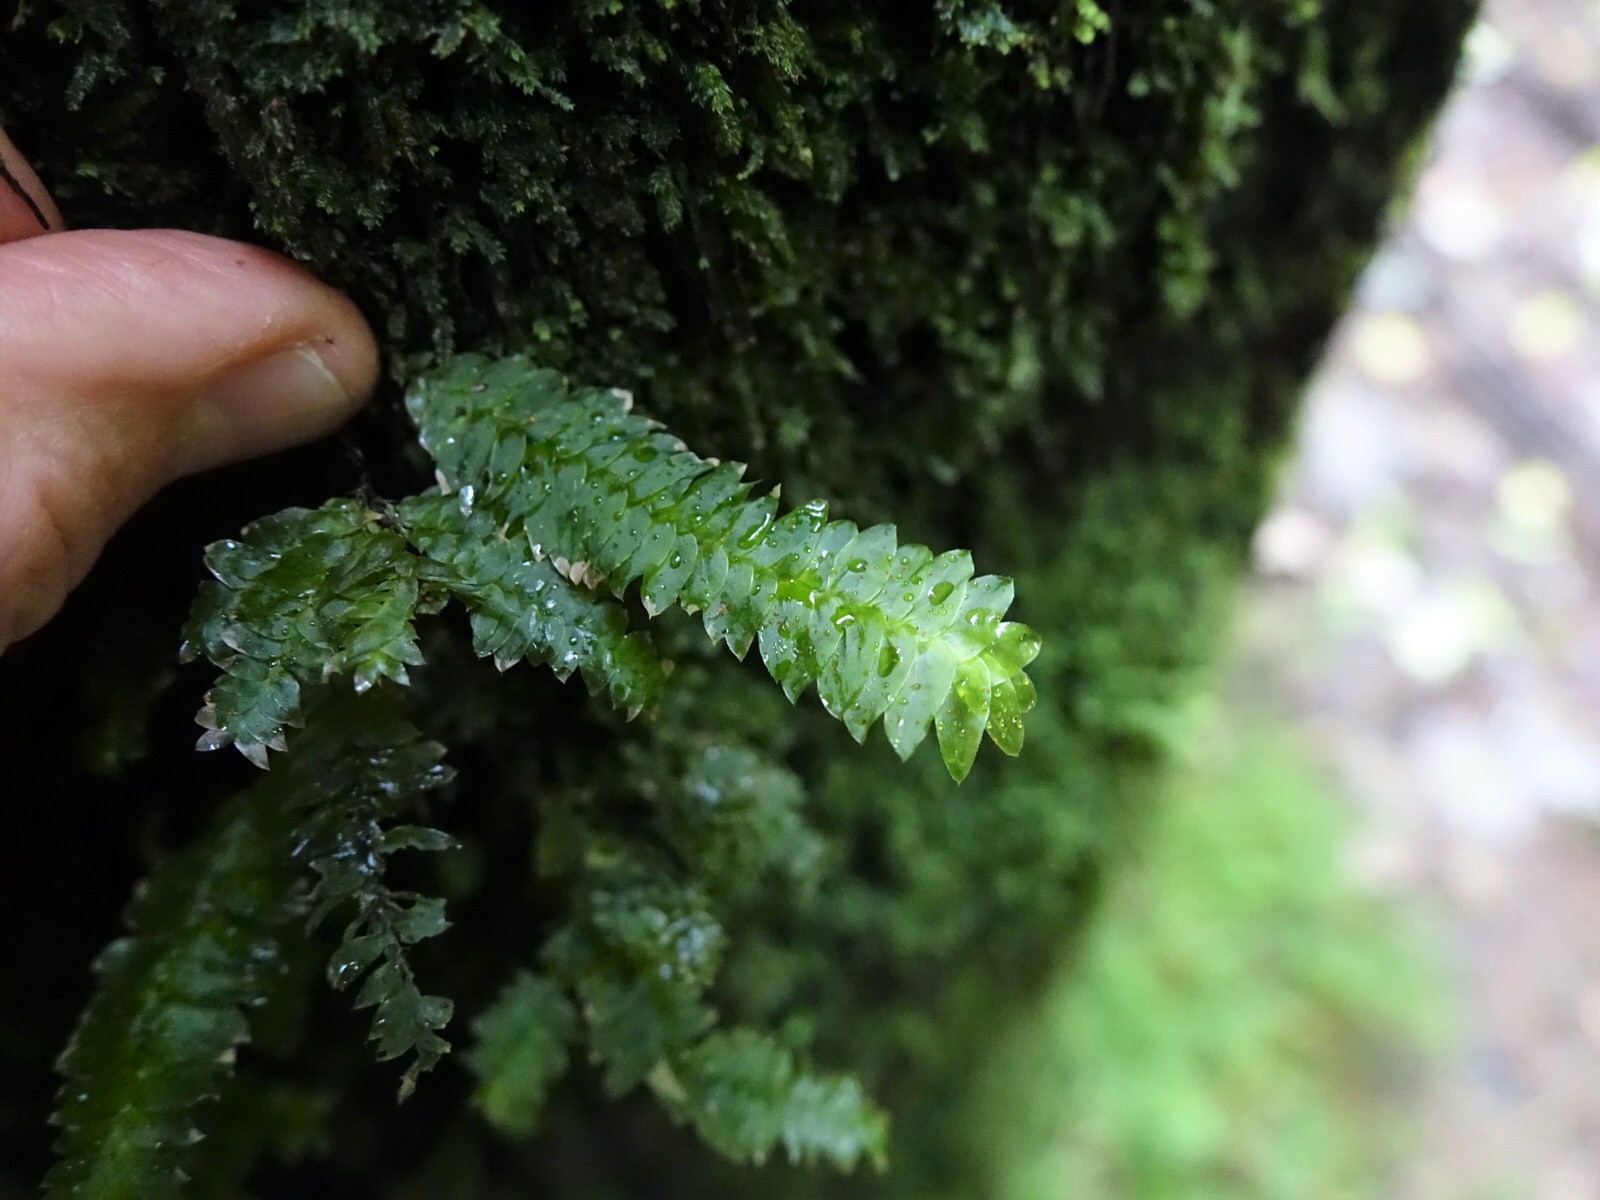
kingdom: Plantae
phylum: Bryophyta
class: Bryopsida
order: Hypopterygiales
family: Hypopterygiaceae
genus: Cyathophorum
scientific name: Cyathophorum bulbosum
